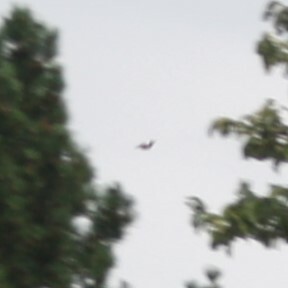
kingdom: Animalia
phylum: Chordata
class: Aves
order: Piciformes
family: Picidae
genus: Dendrocopos
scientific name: Dendrocopos major
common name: Great spotted woodpecker
